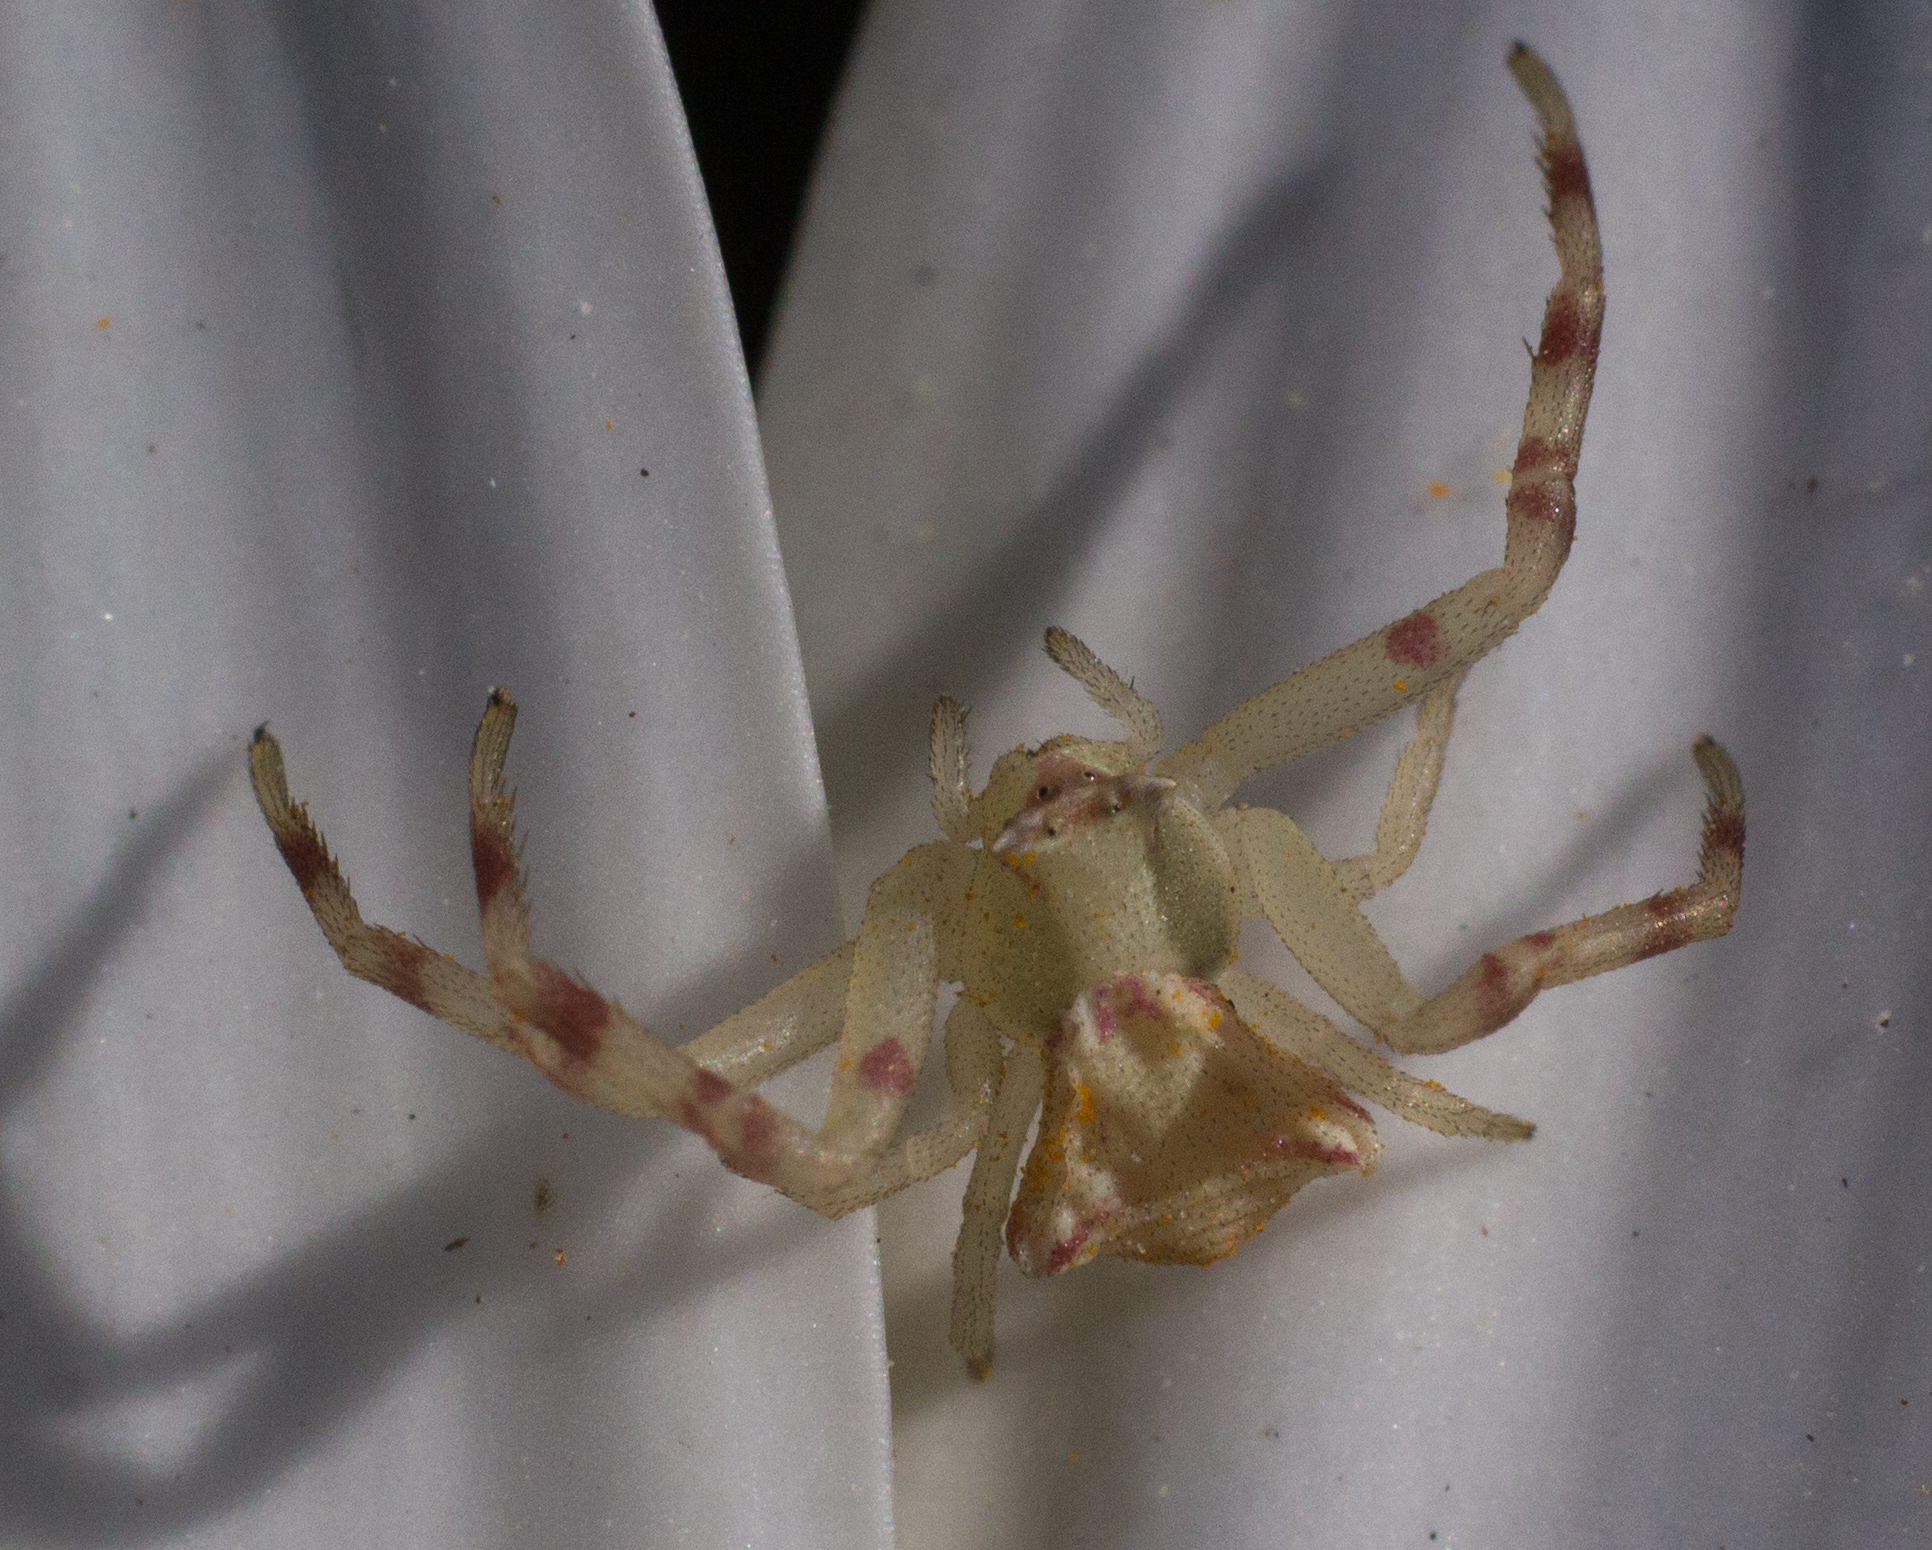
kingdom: Animalia
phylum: Arthropoda
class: Arachnida
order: Araneae
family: Thomisidae
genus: Thomisus
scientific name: Thomisus onustus
